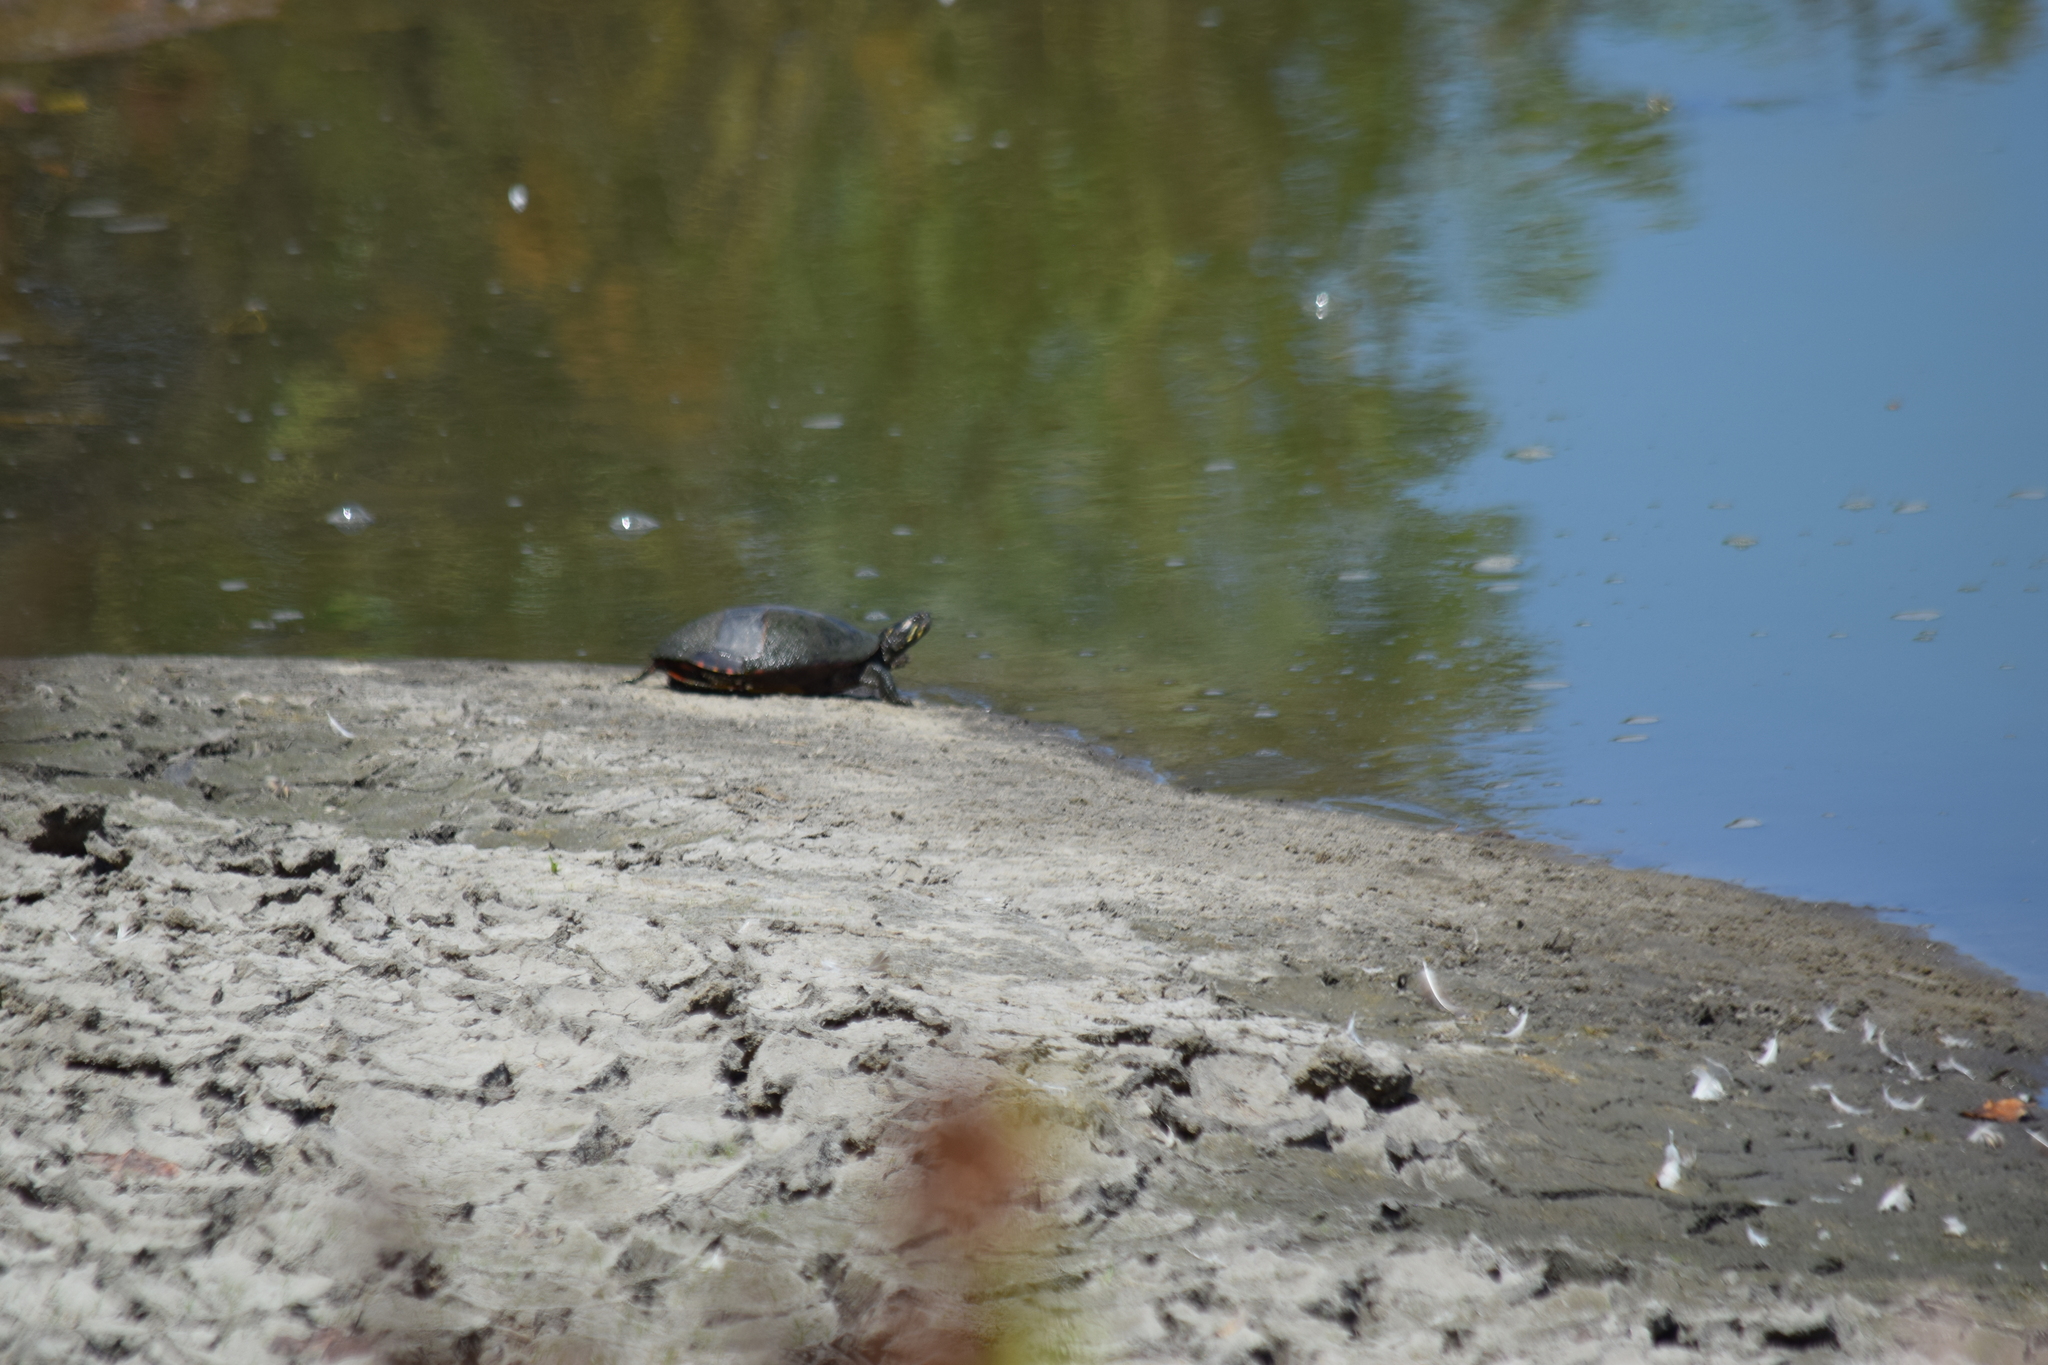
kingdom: Animalia
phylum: Chordata
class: Testudines
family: Emydidae
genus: Chrysemys
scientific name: Chrysemys picta
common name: Painted turtle
